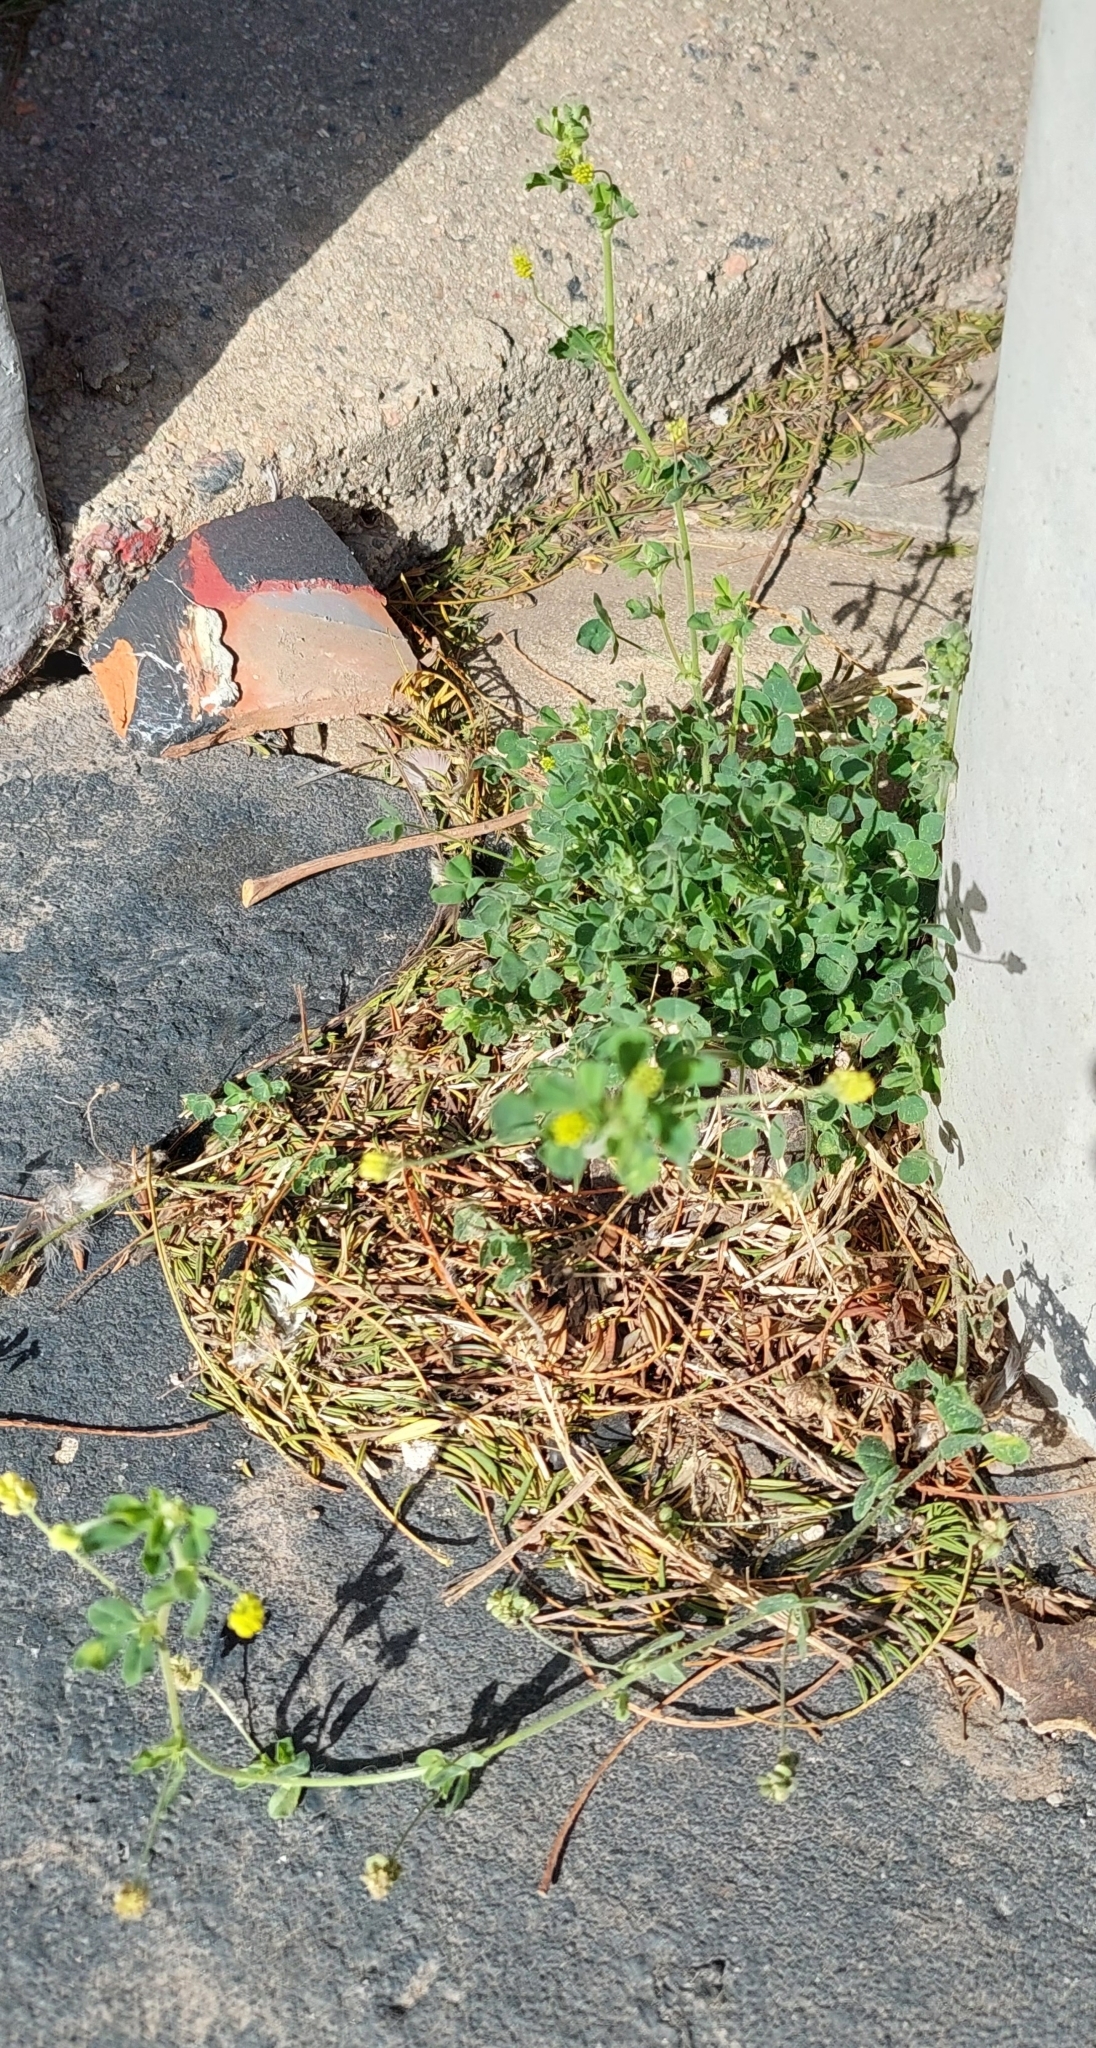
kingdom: Plantae
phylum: Tracheophyta
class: Magnoliopsida
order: Fabales
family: Fabaceae
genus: Medicago
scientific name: Medicago lupulina
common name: Black medick
